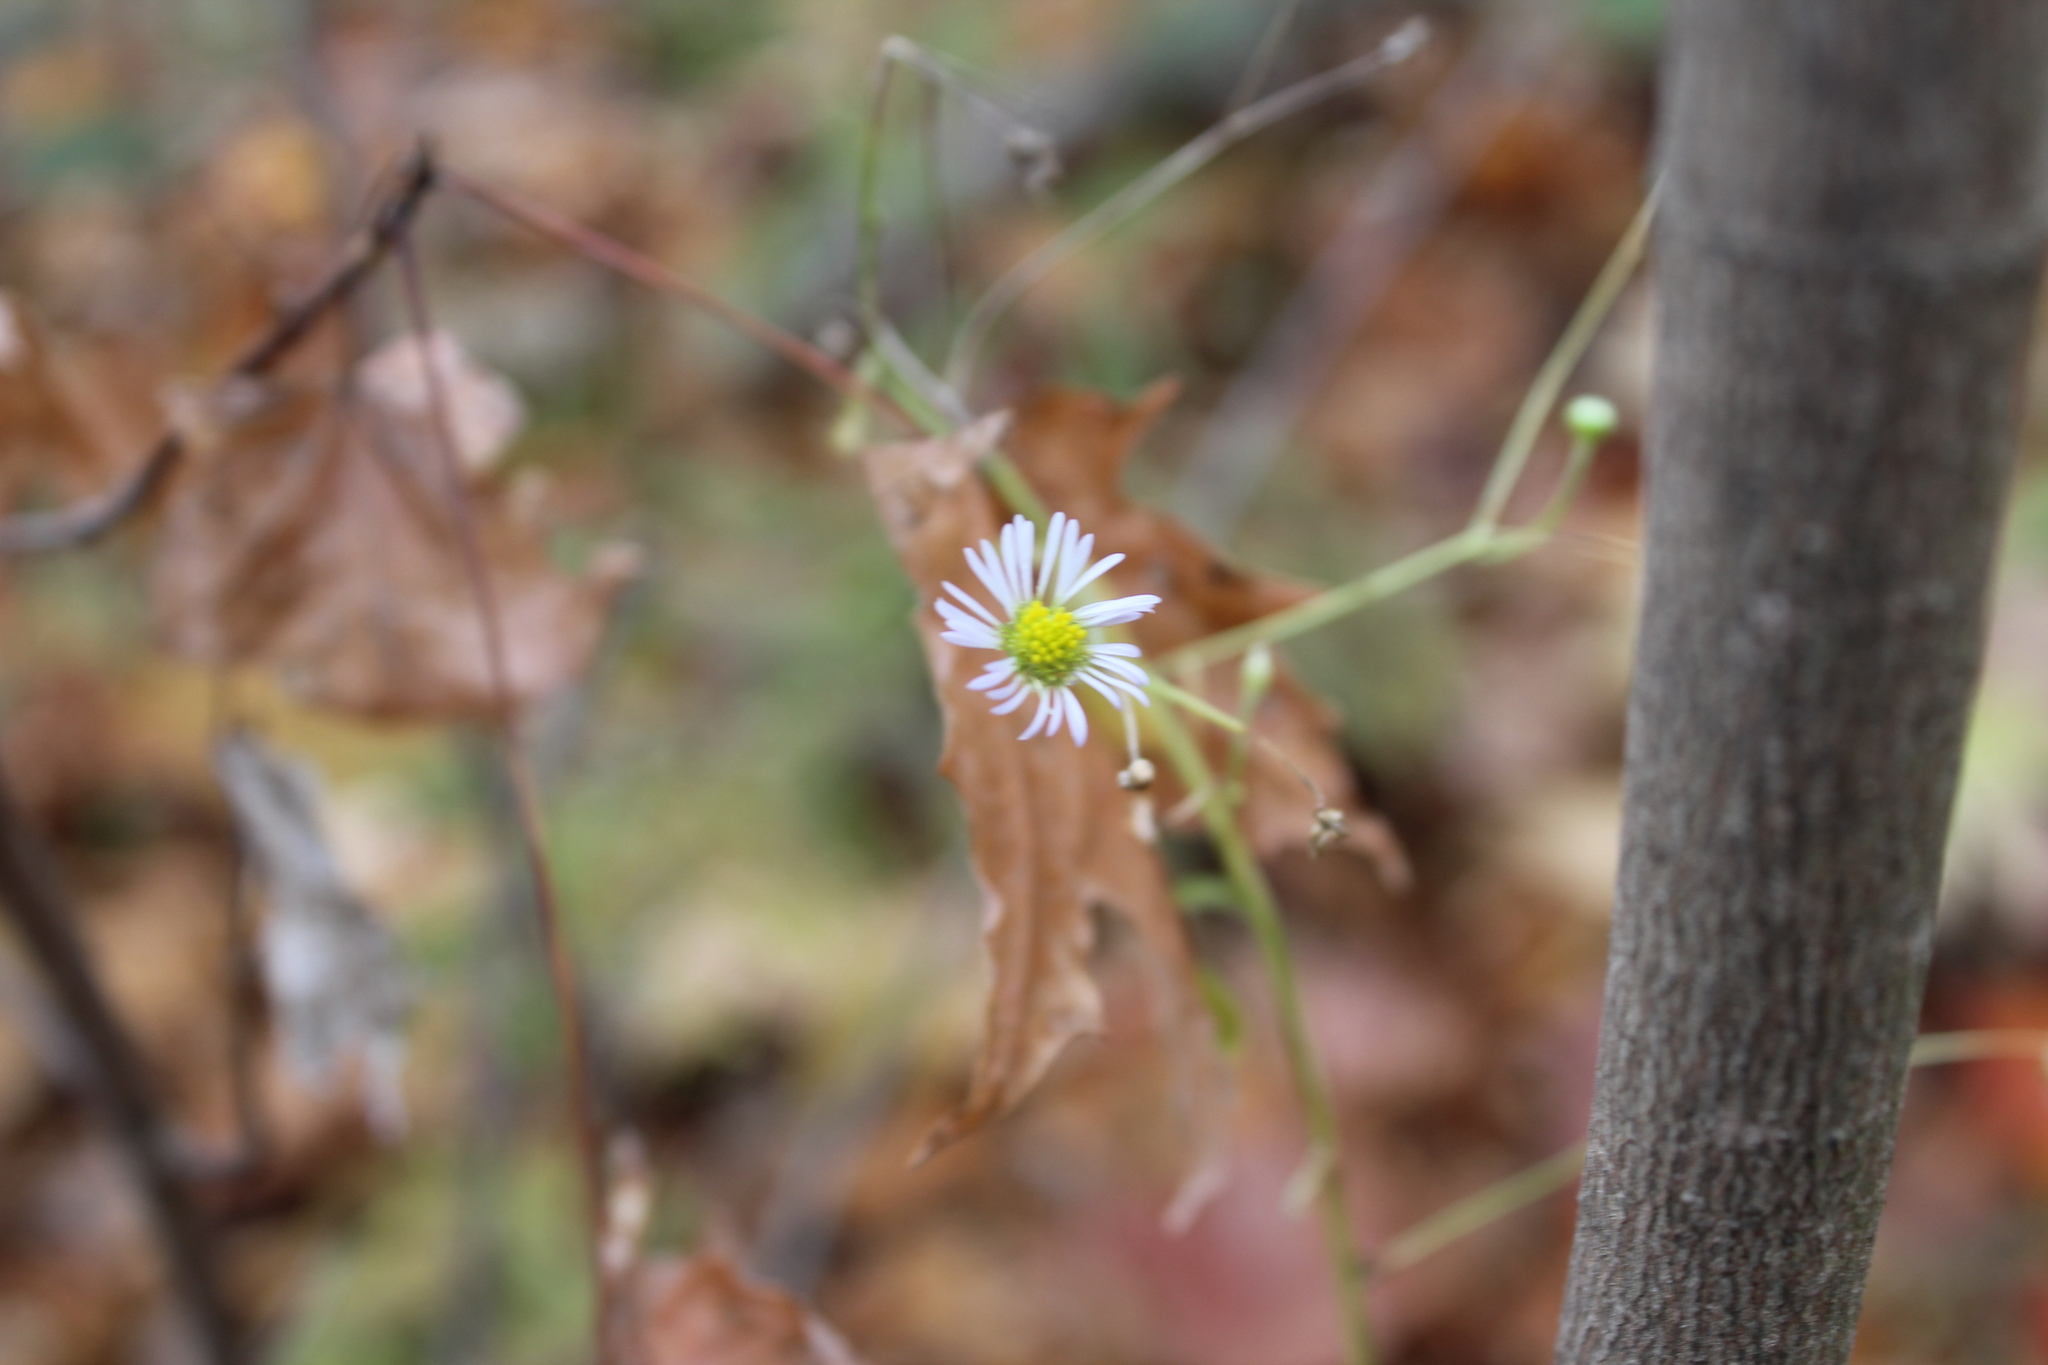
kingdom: Plantae
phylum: Tracheophyta
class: Magnoliopsida
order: Asterales
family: Asteraceae
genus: Erigeron
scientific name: Erigeron
